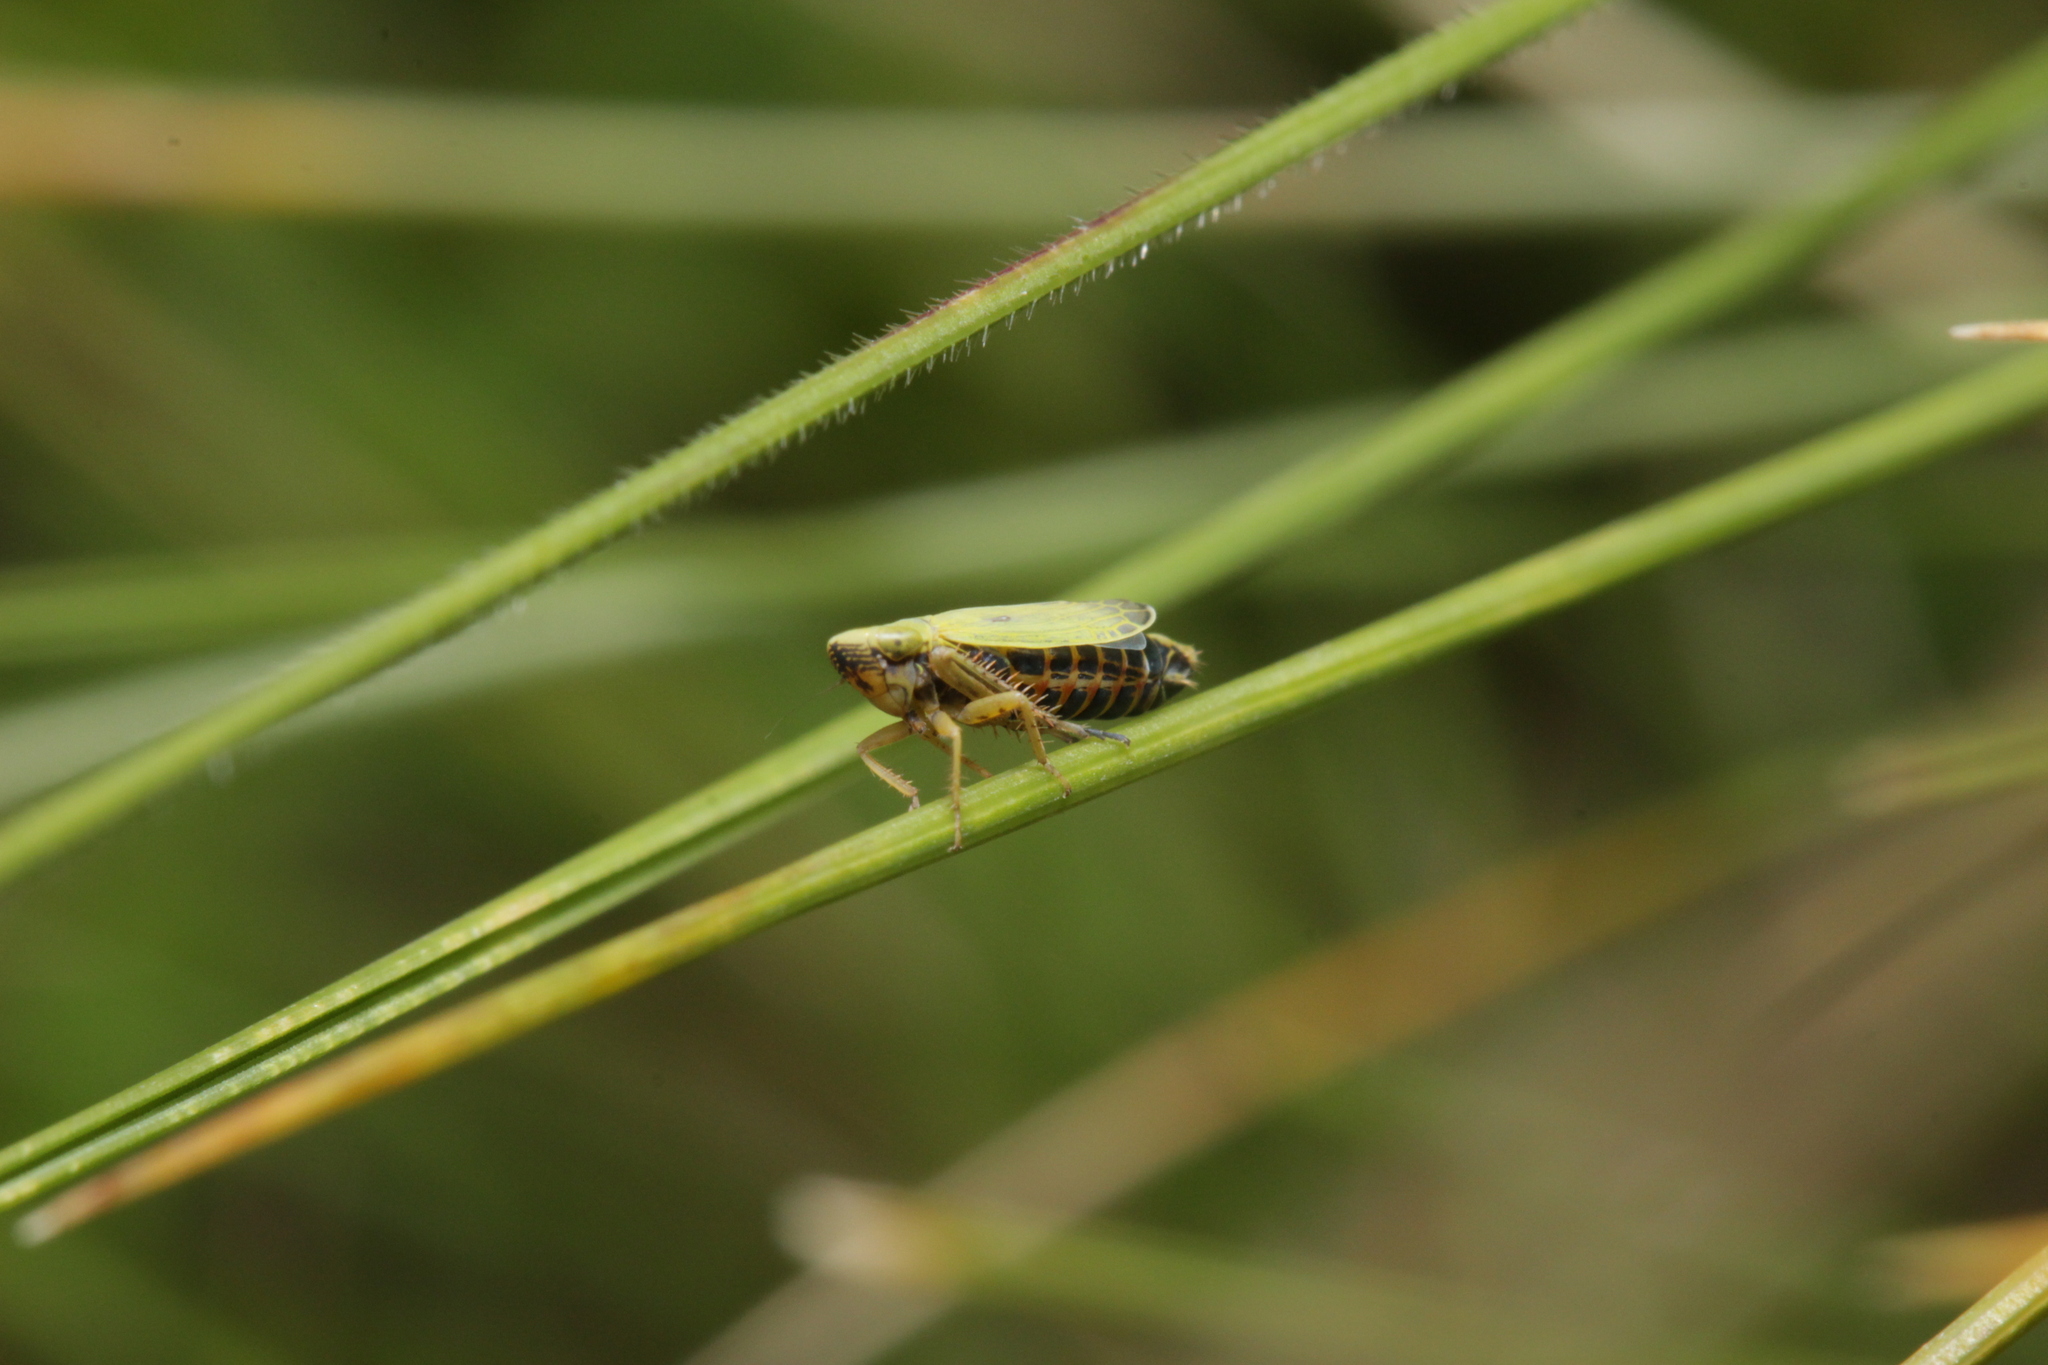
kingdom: Animalia
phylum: Arthropoda
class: Insecta
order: Hemiptera
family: Cicadellidae
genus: Diplocolenus
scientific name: Diplocolenus abdominalis
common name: Leafhopper
